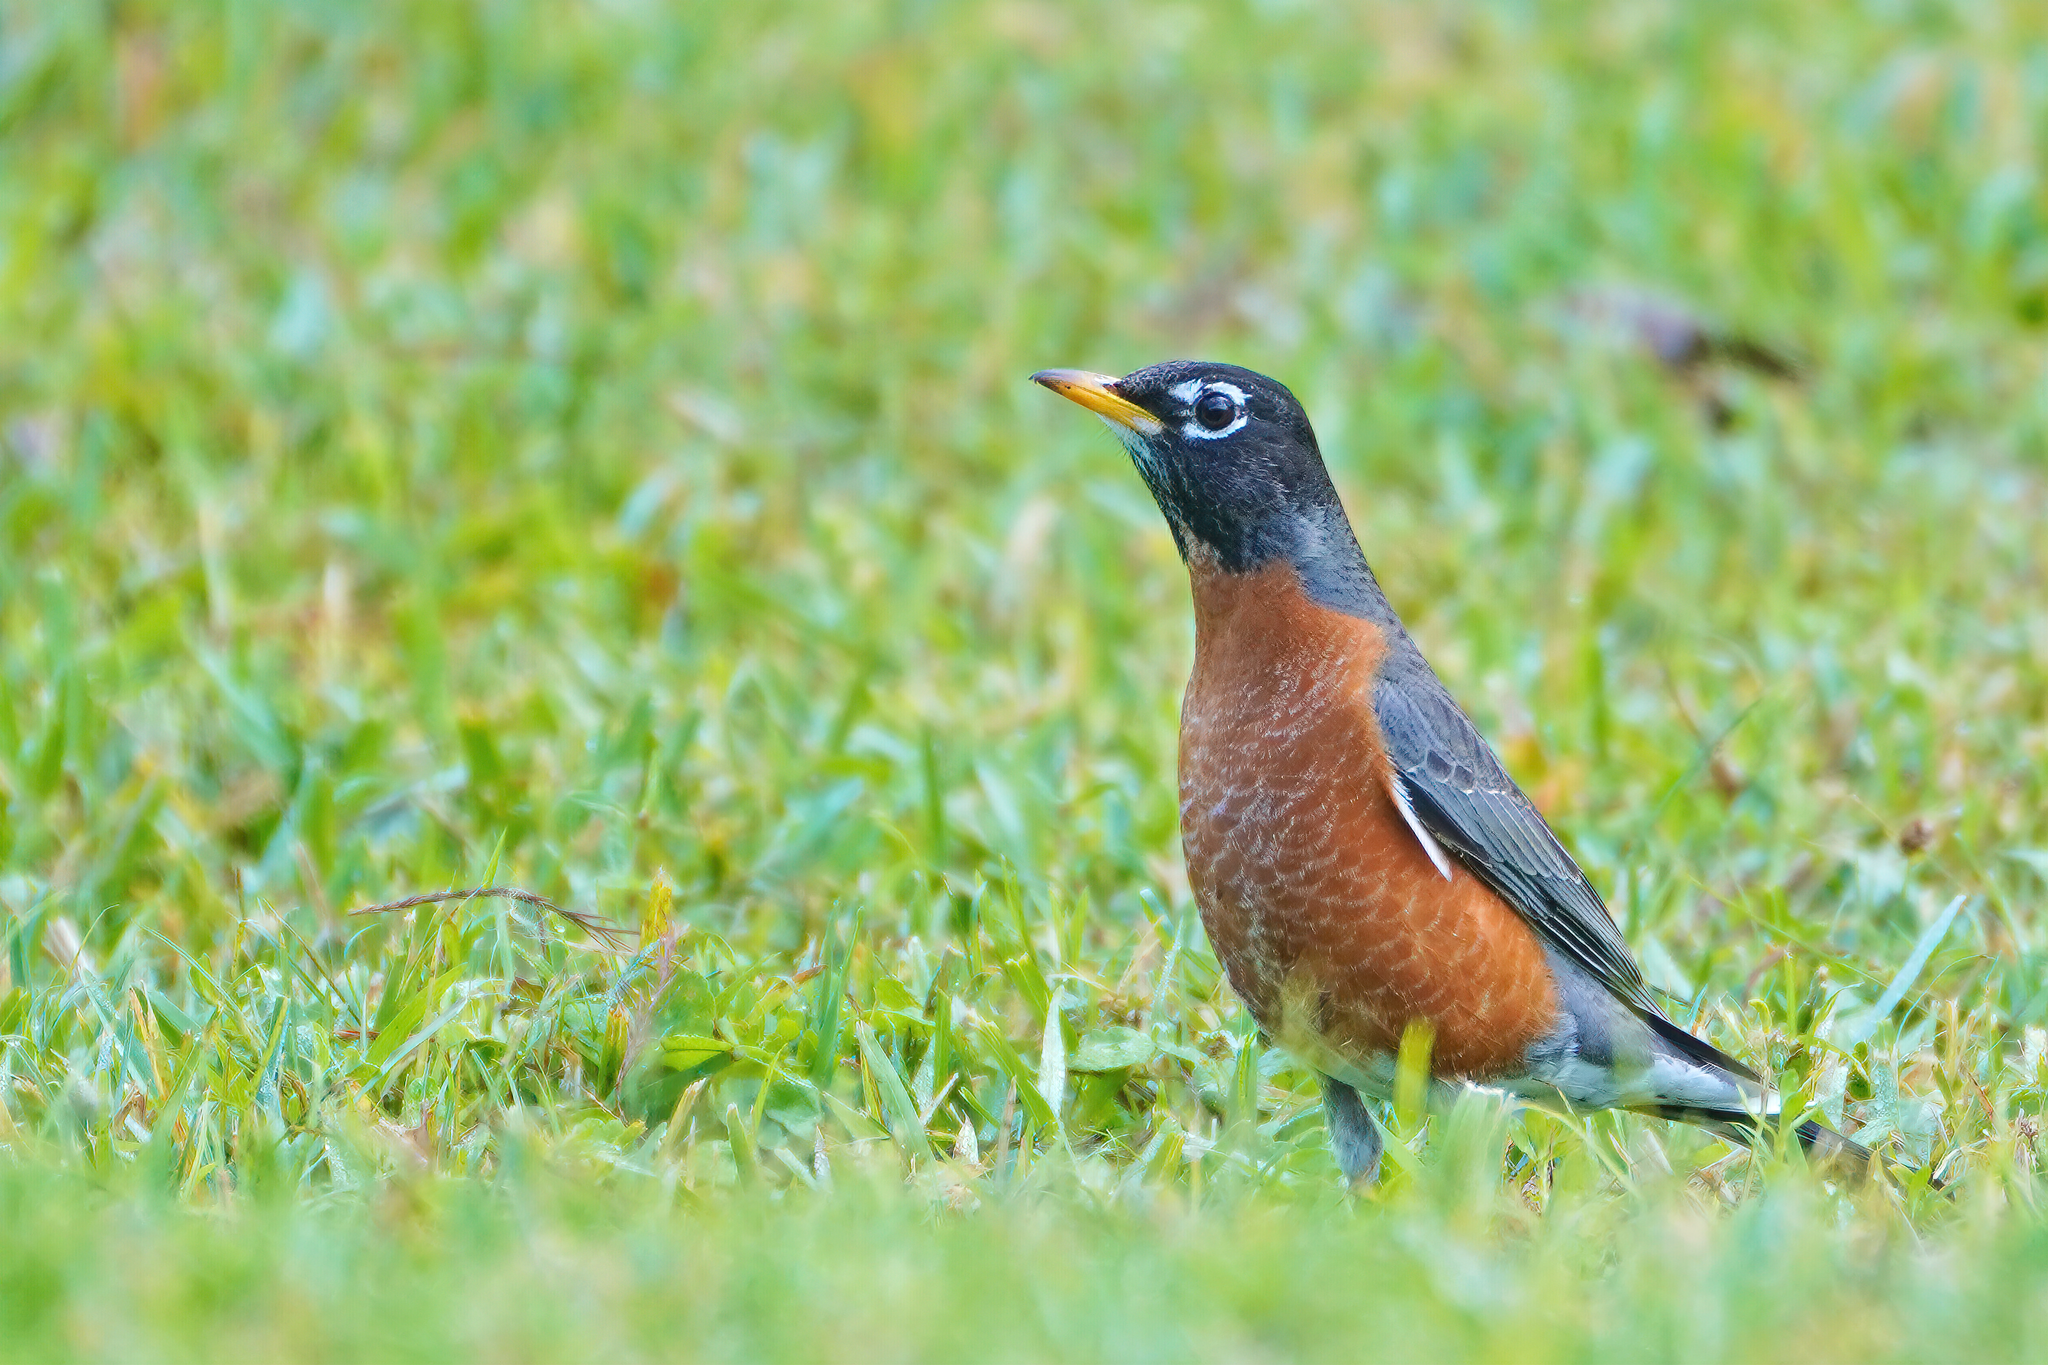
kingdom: Animalia
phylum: Chordata
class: Aves
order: Passeriformes
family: Turdidae
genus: Turdus
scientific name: Turdus migratorius
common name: American robin
